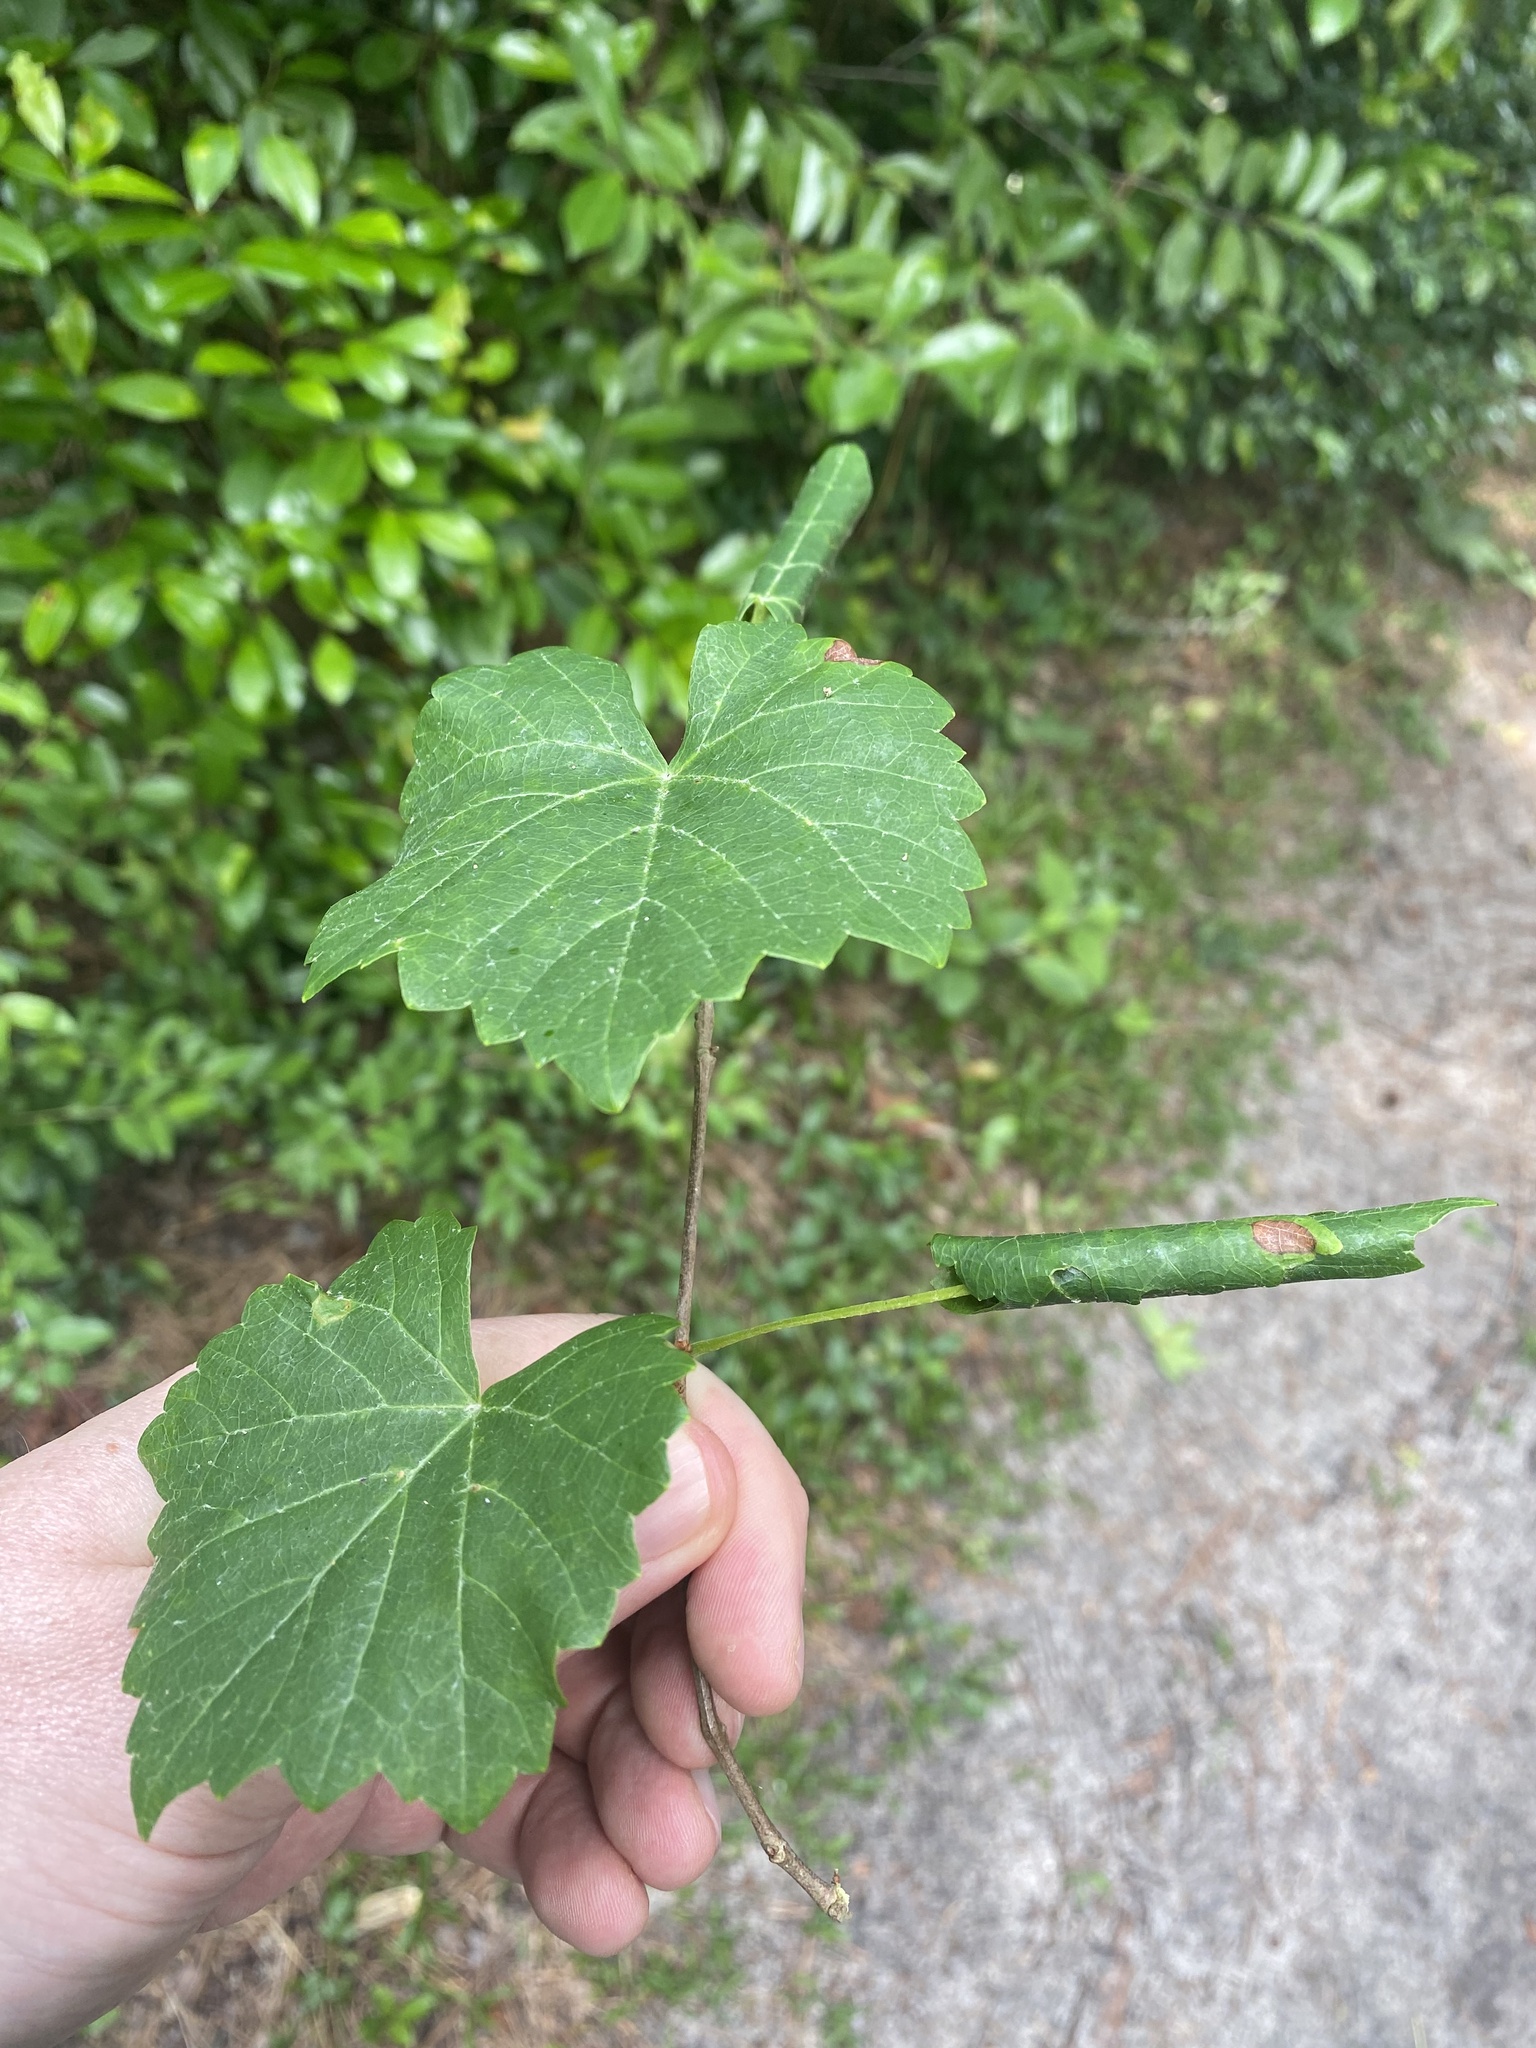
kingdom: Plantae
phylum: Tracheophyta
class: Magnoliopsida
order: Vitales
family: Vitaceae
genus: Vitis
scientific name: Vitis rotundifolia
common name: Muscadine grape
